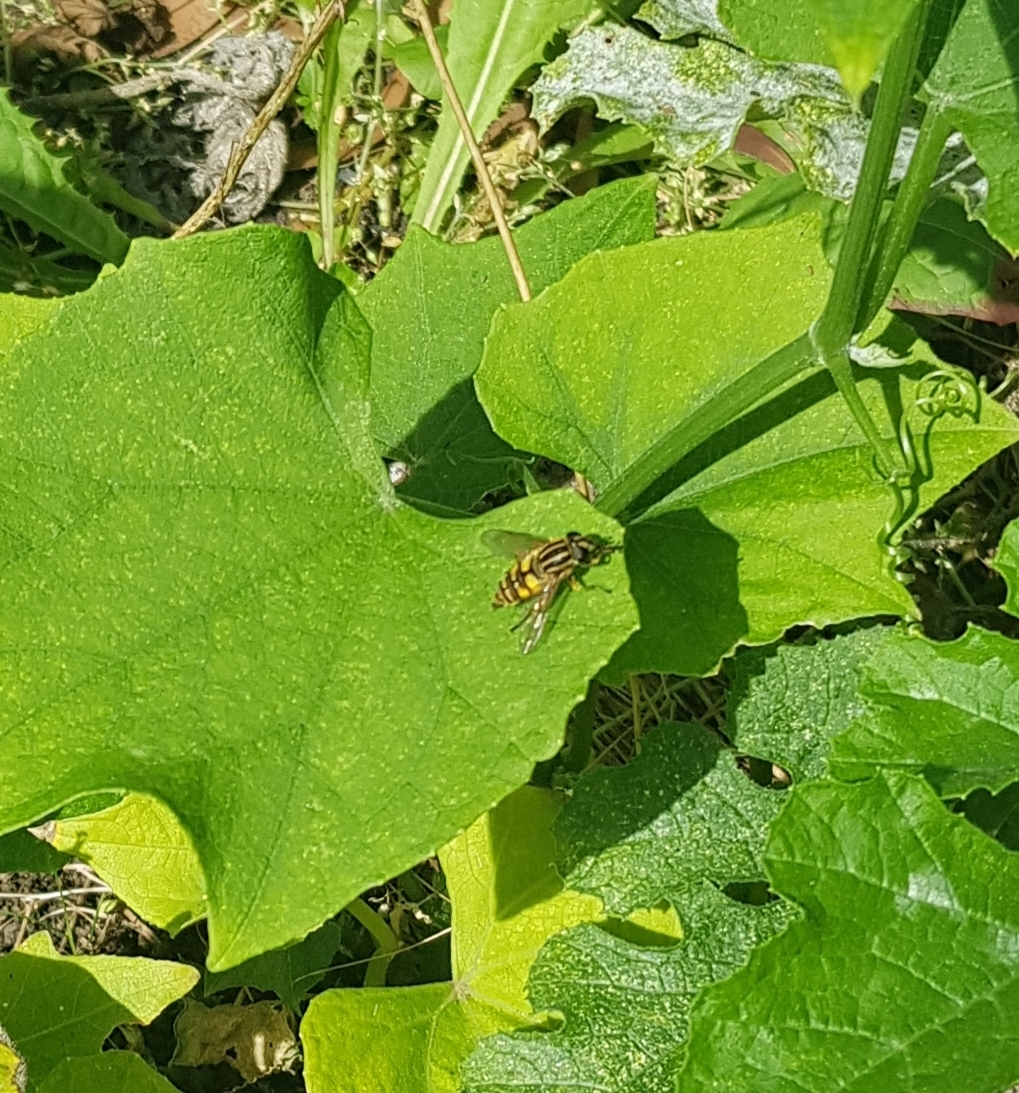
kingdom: Animalia
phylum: Arthropoda
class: Insecta
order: Diptera
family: Syrphidae
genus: Helophilus
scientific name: Helophilus pendulus
